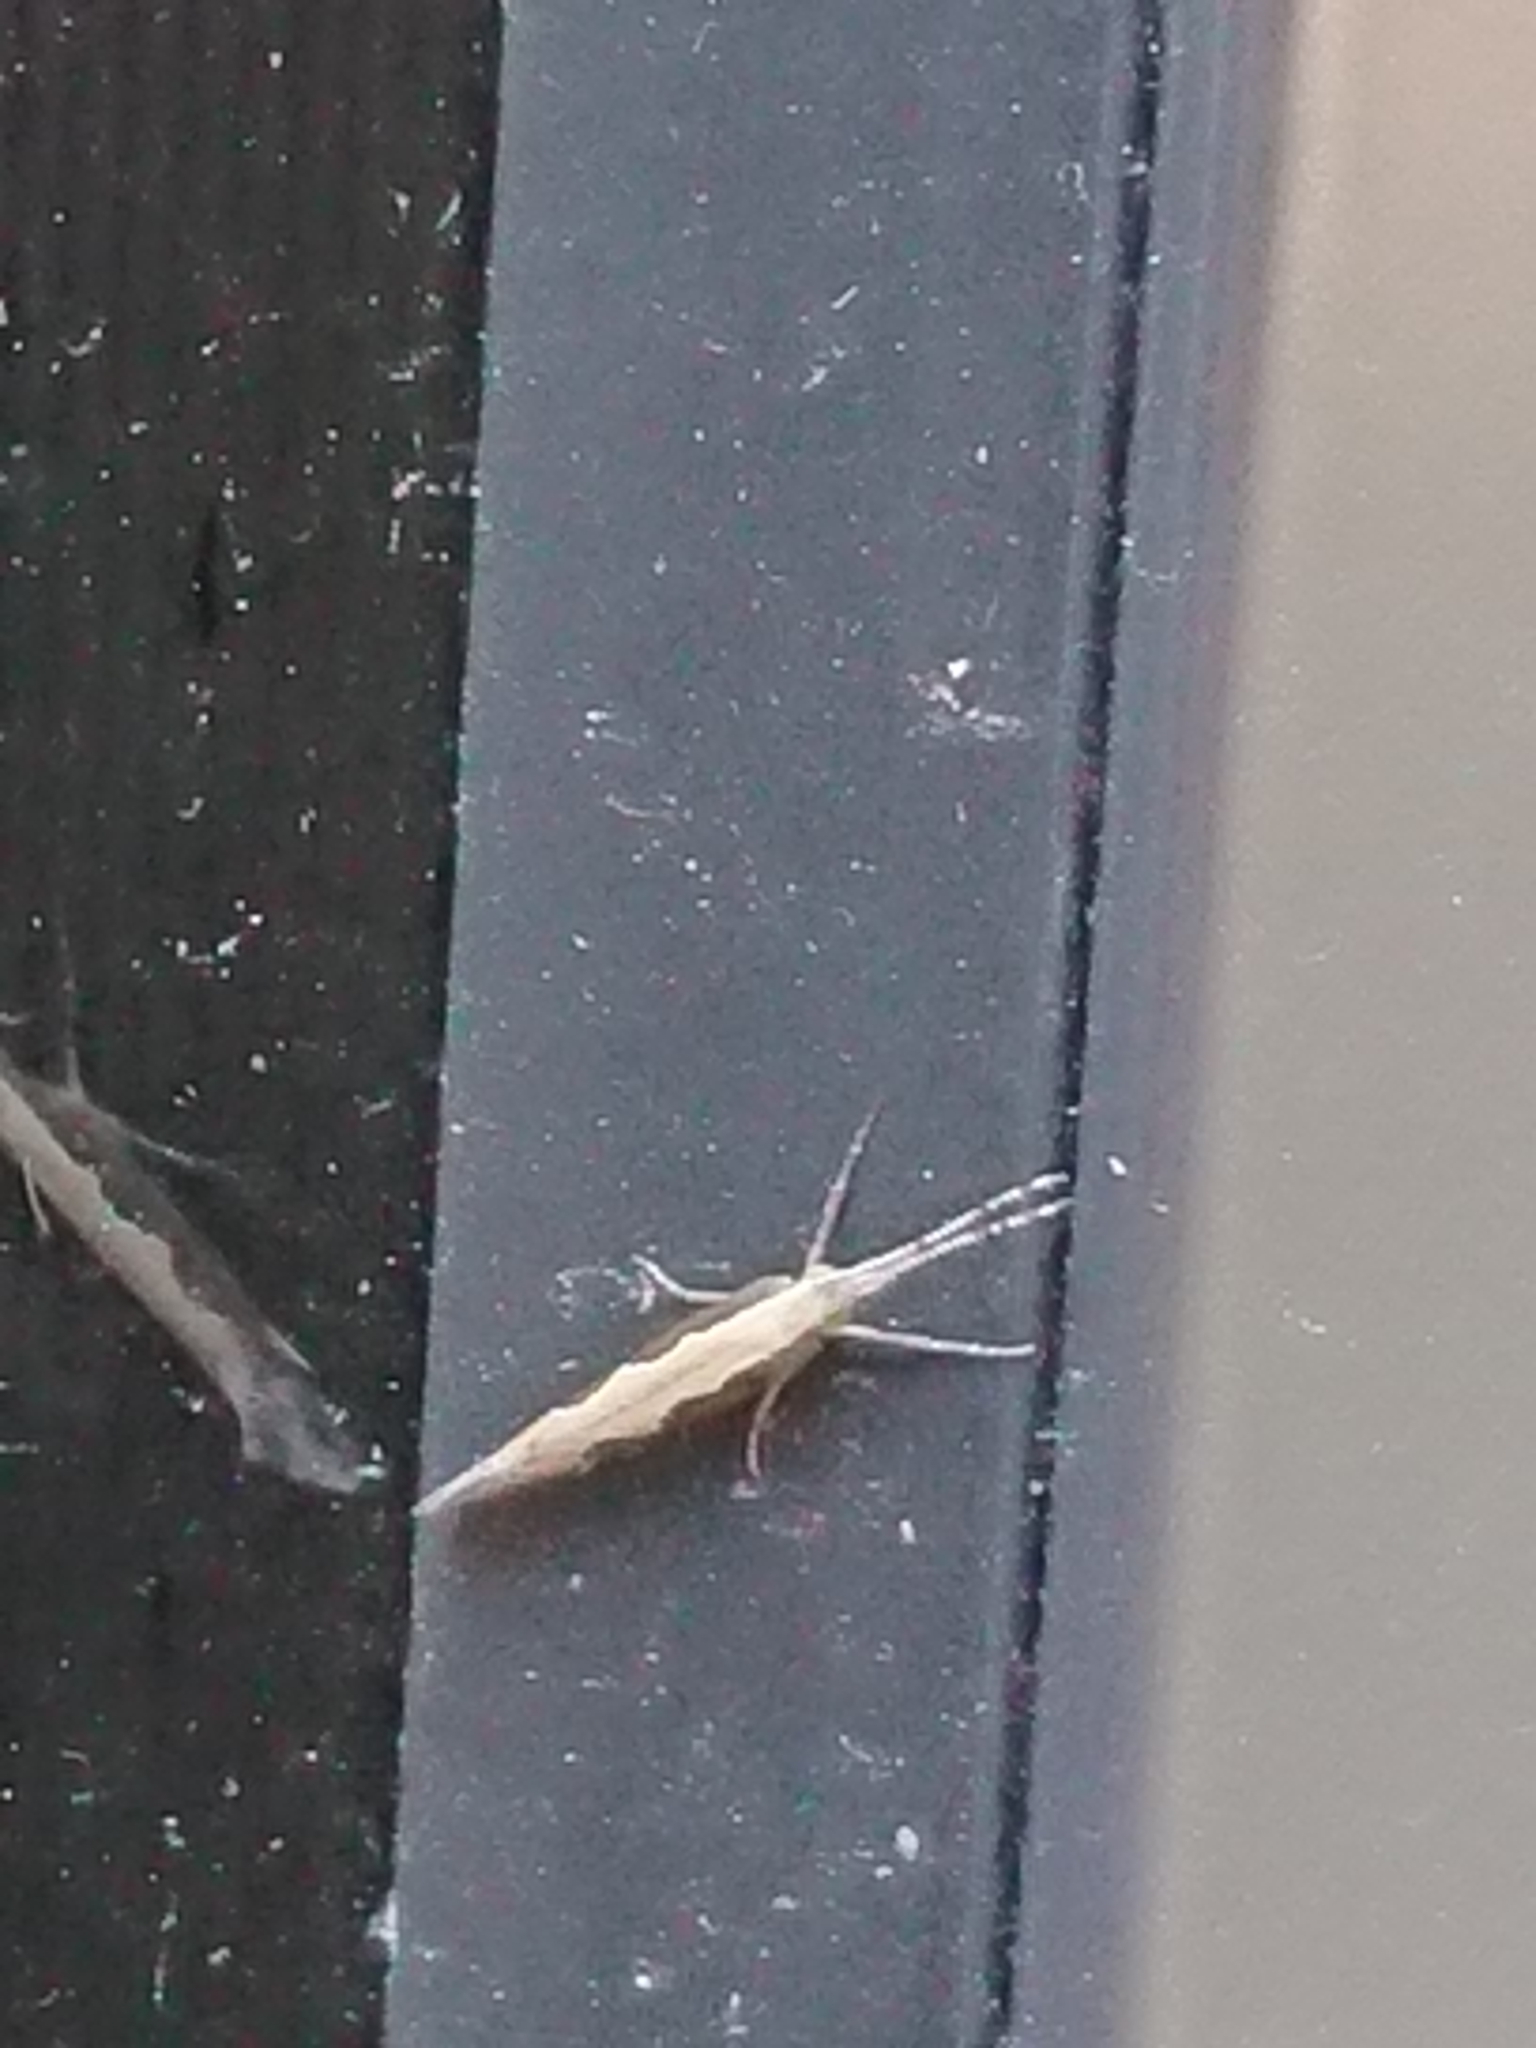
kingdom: Animalia
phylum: Arthropoda
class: Insecta
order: Lepidoptera
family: Plutellidae
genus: Plutella
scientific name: Plutella xylostella
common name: Diamond-back moth
